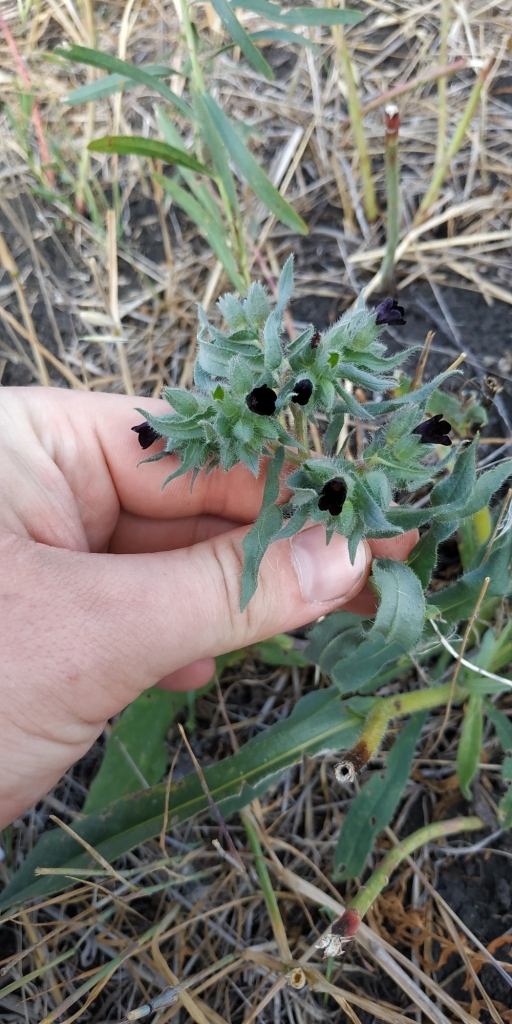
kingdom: Plantae
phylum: Tracheophyta
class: Magnoliopsida
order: Boraginales
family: Boraginaceae
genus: Nonea
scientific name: Nonea pulla
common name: Brown nonea
